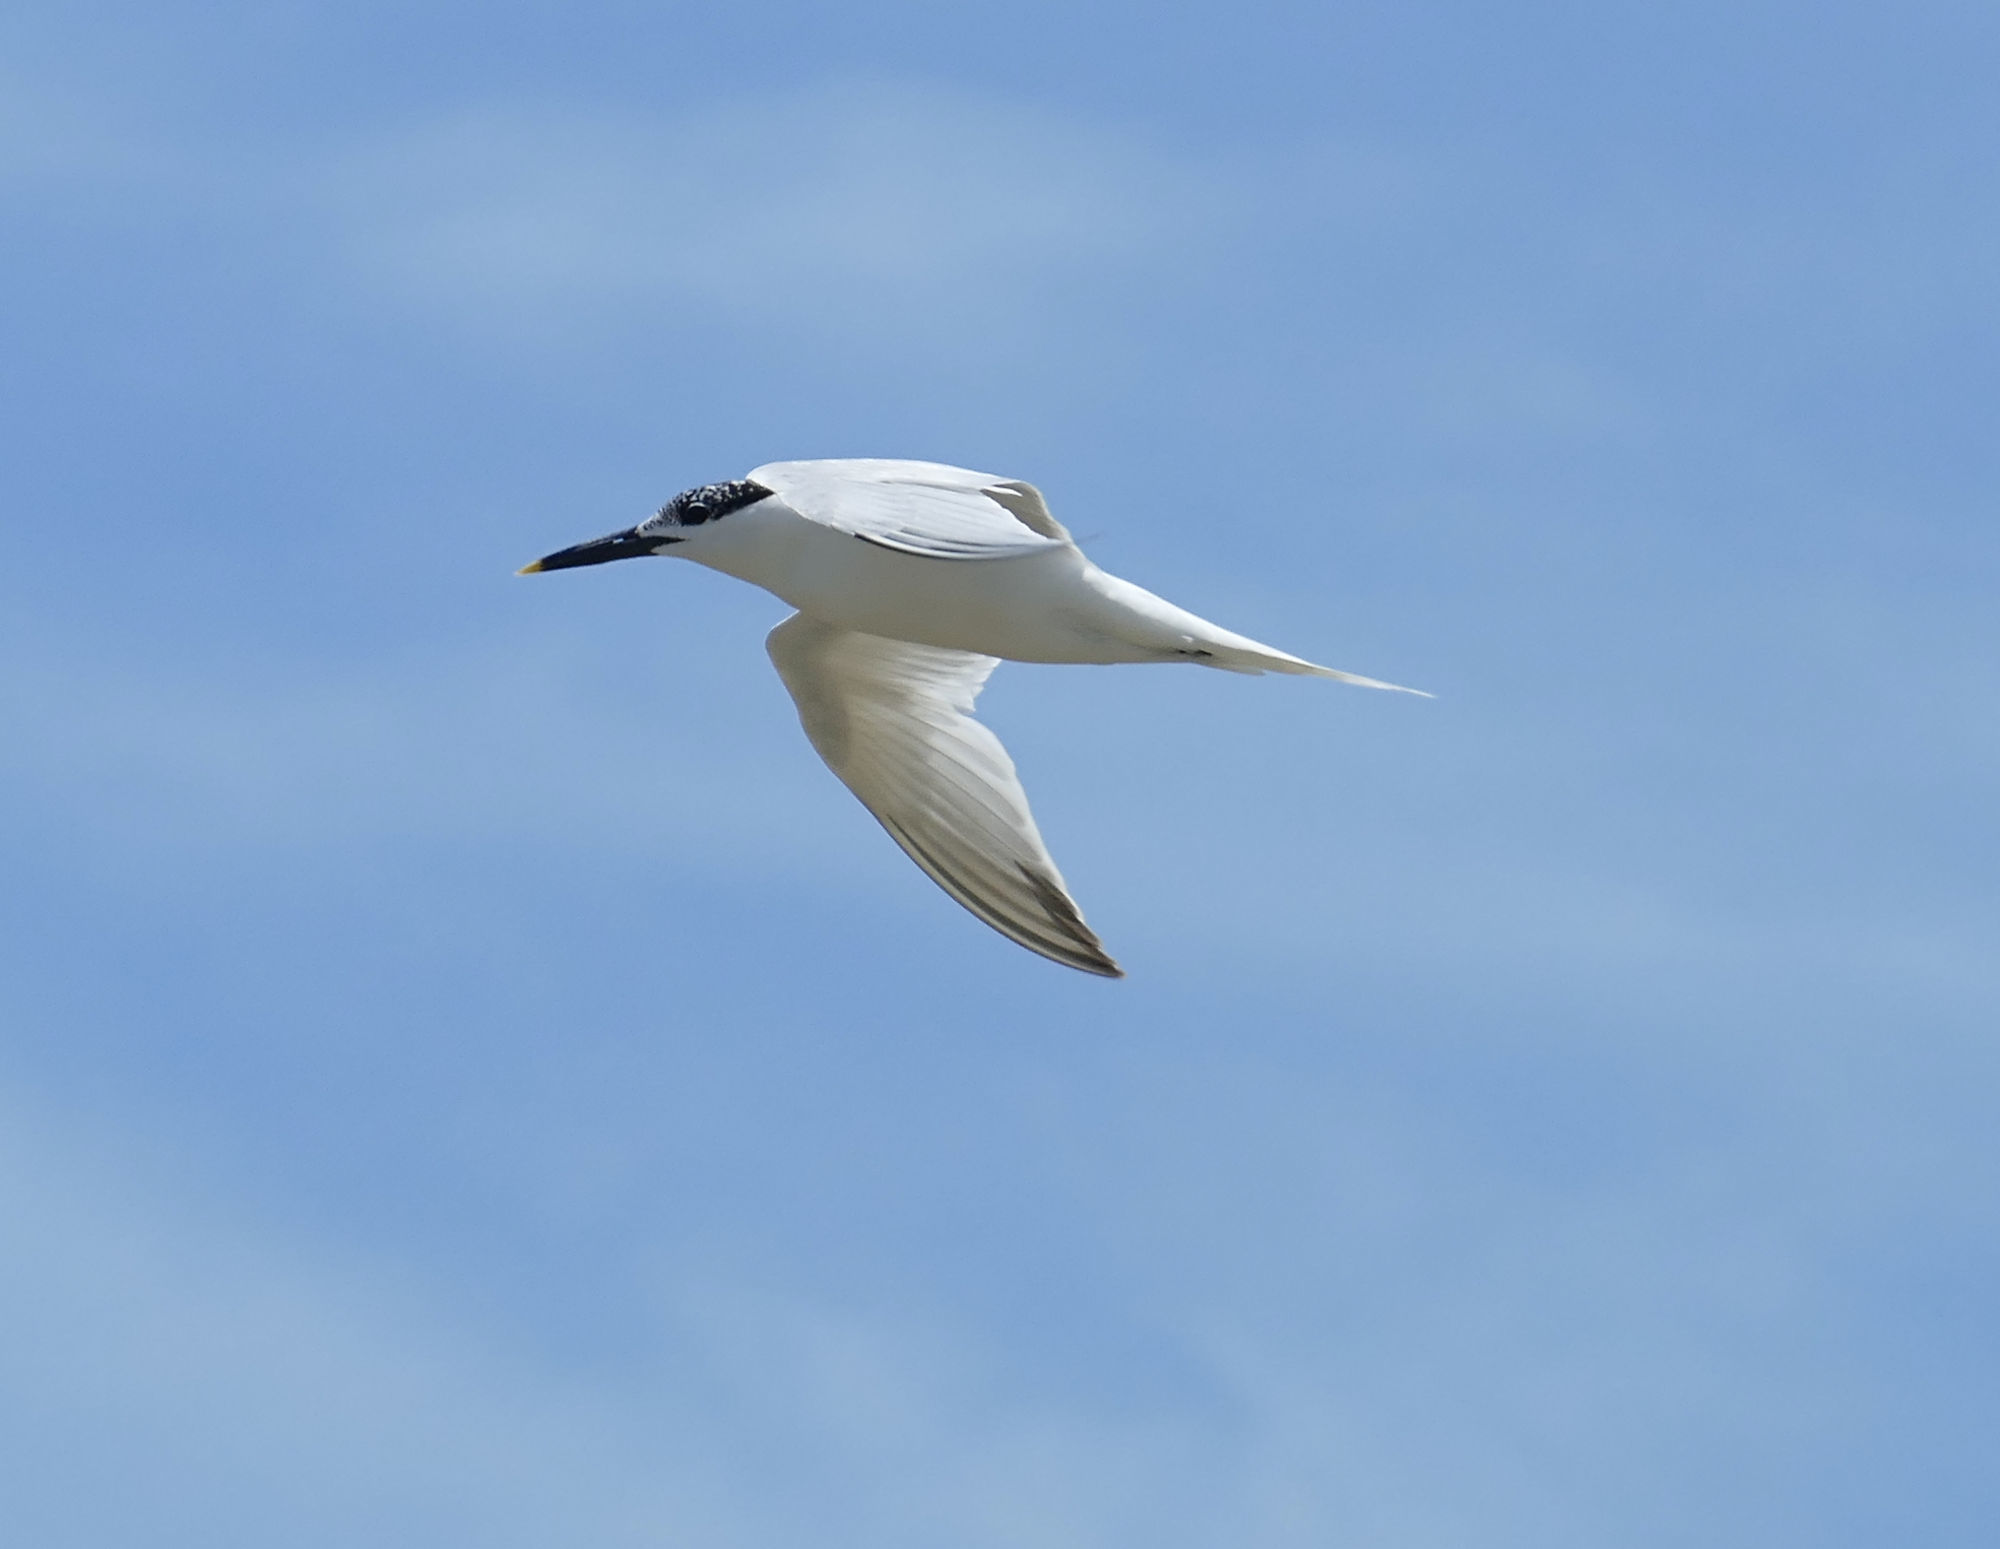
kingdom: Animalia
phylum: Chordata
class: Aves
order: Charadriiformes
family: Laridae
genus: Thalasseus
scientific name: Thalasseus sandvicensis
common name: Sandwich tern
